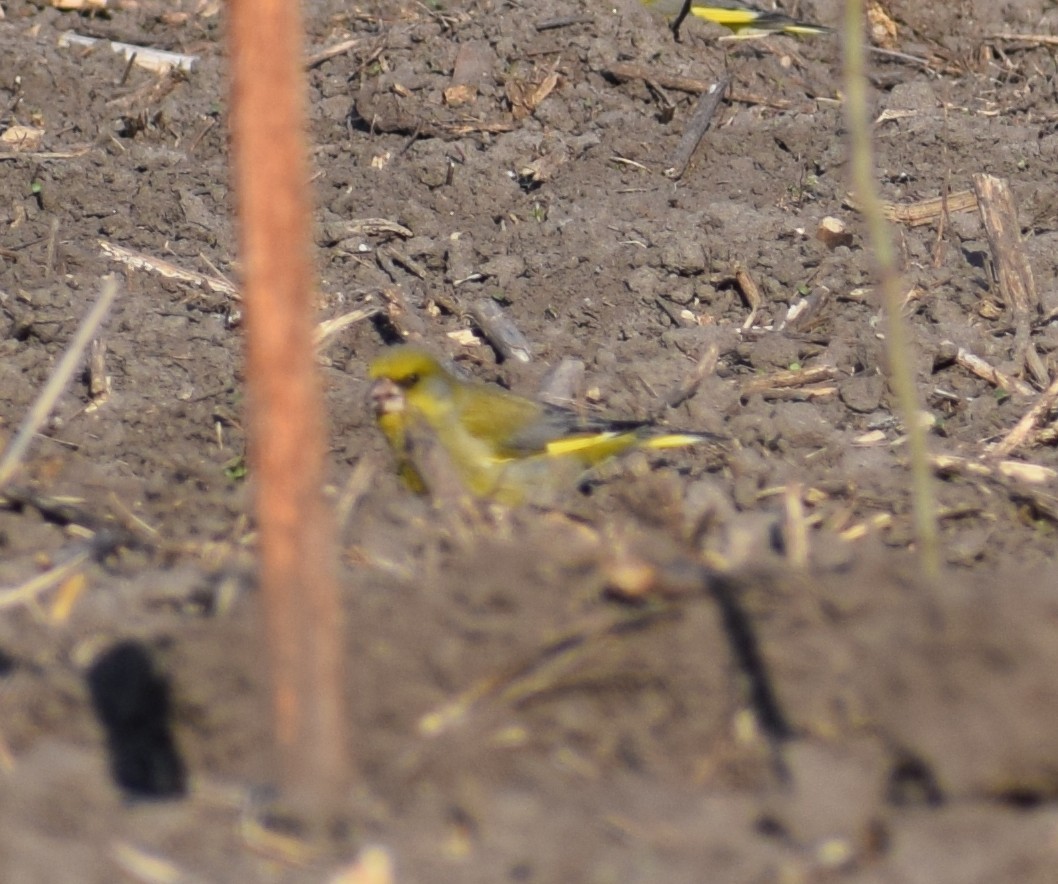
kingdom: Plantae
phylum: Tracheophyta
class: Liliopsida
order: Poales
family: Poaceae
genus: Chloris
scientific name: Chloris chloris
